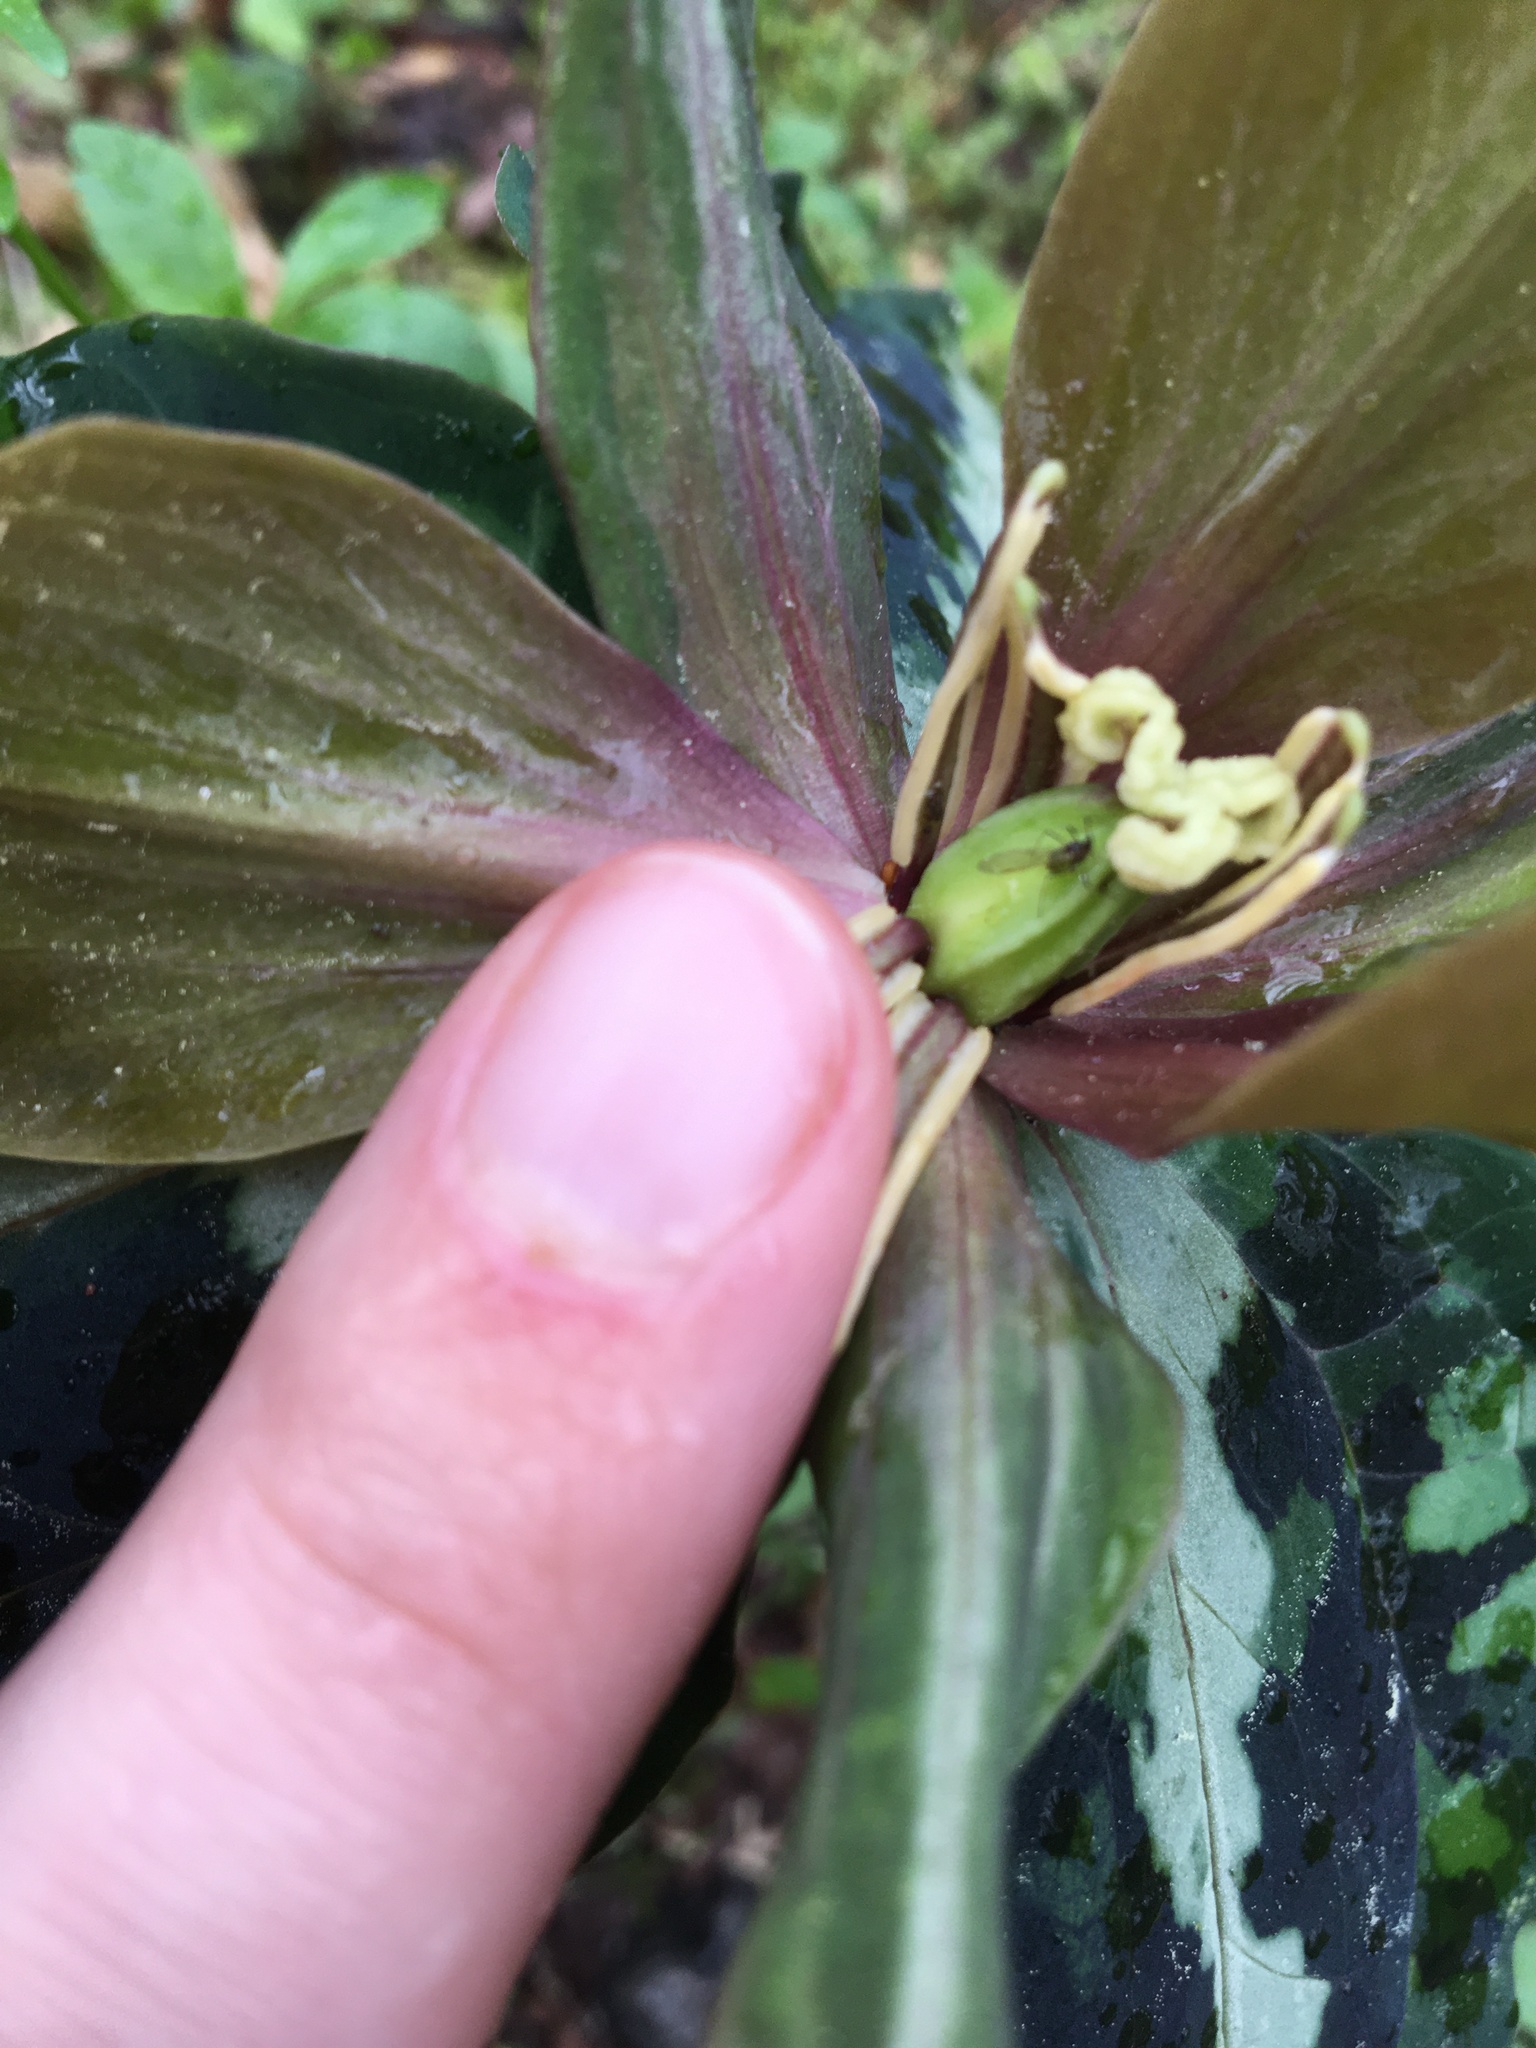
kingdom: Plantae
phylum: Tracheophyta
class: Liliopsida
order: Liliales
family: Melanthiaceae
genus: Trillium
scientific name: Trillium decipiens
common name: Chattahoochee river trillium
